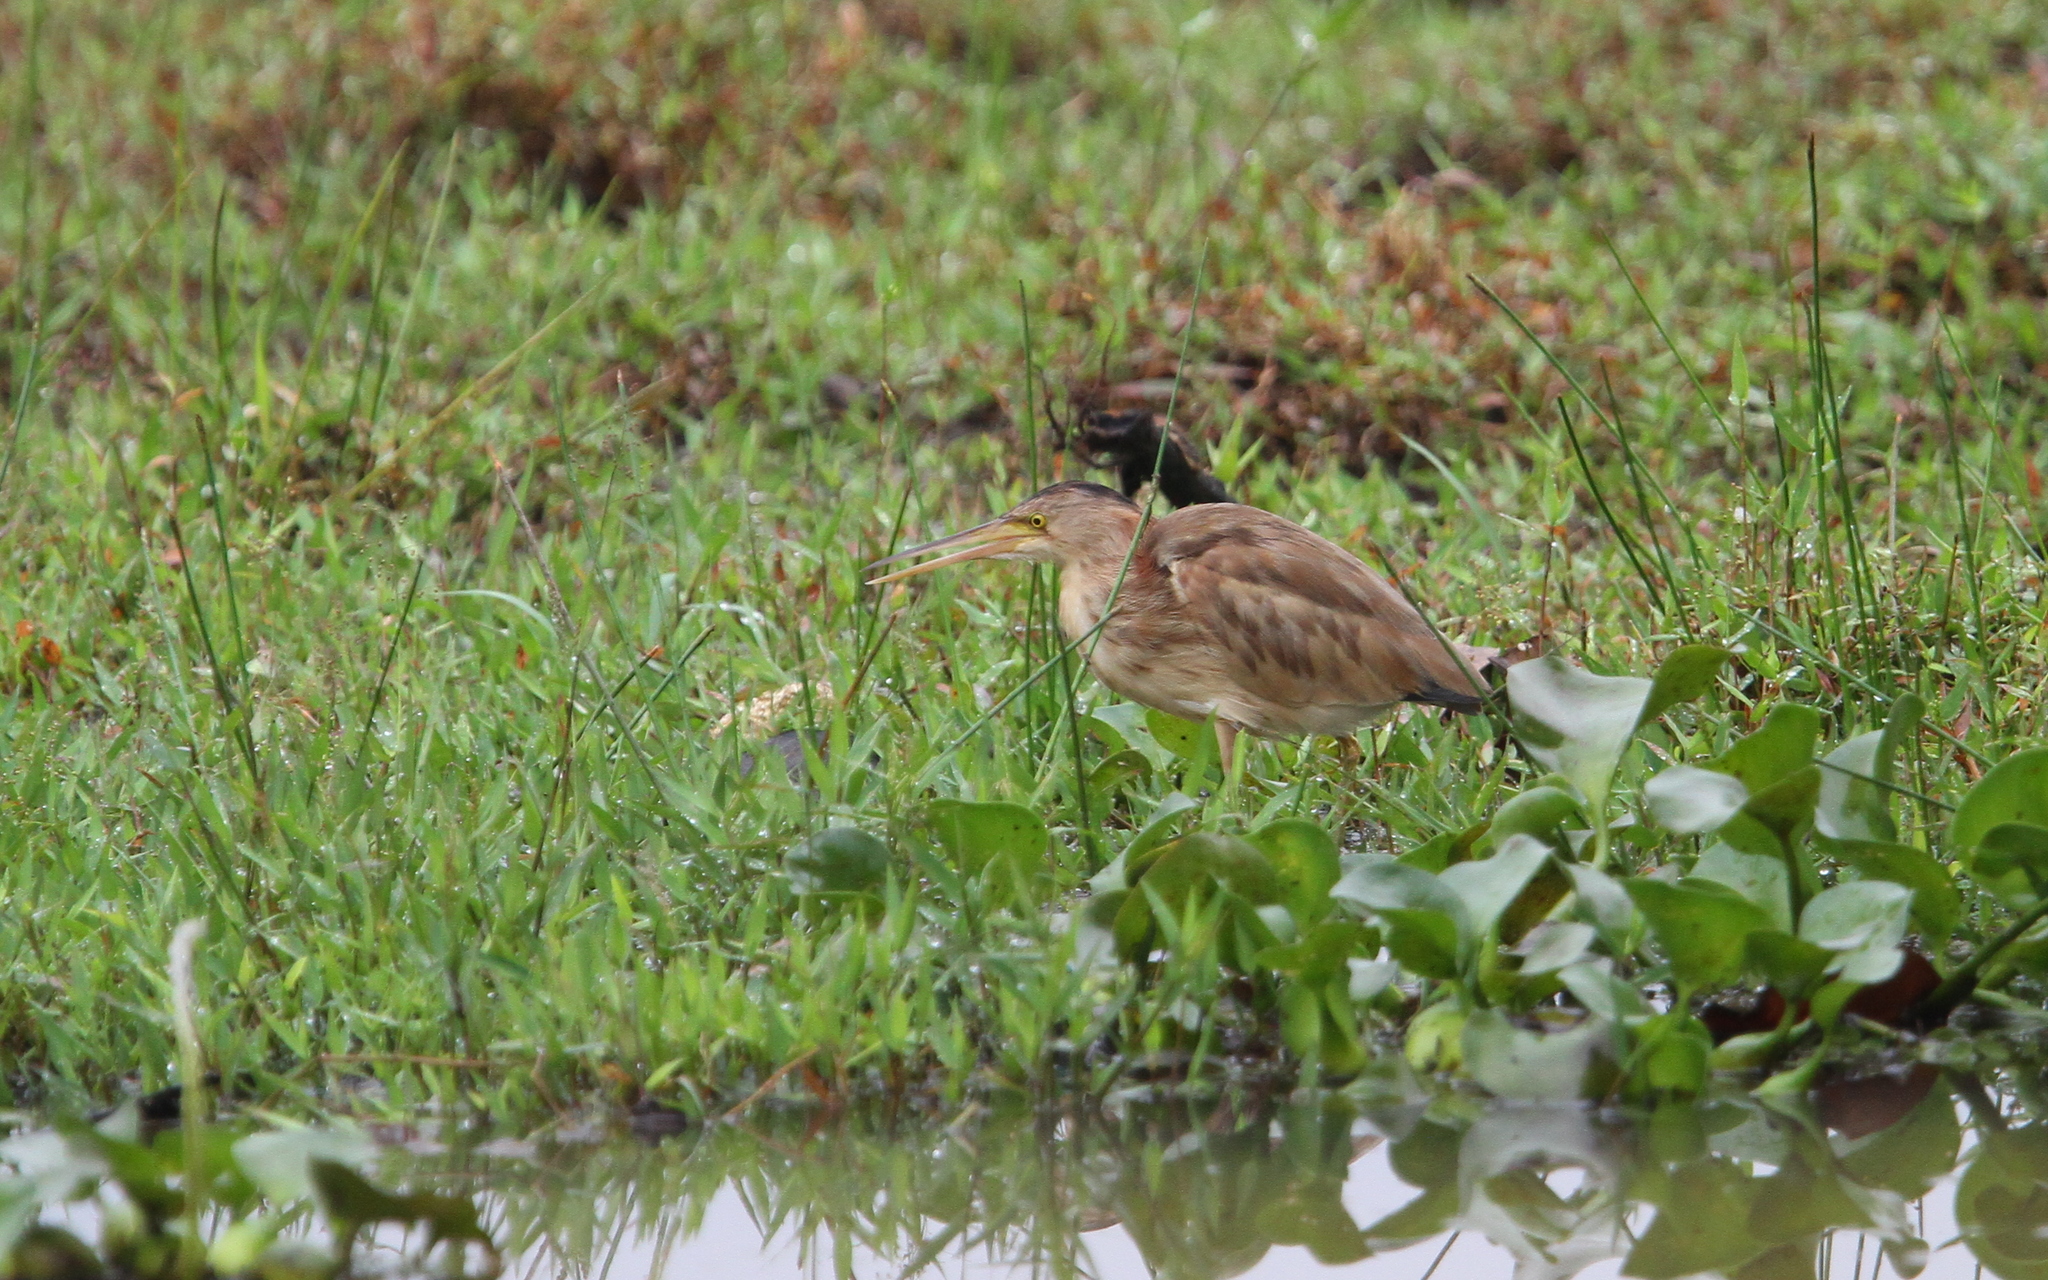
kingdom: Animalia
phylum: Chordata
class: Aves
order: Pelecaniformes
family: Ardeidae
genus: Ixobrychus
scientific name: Ixobrychus sinensis
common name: Yellow bittern
